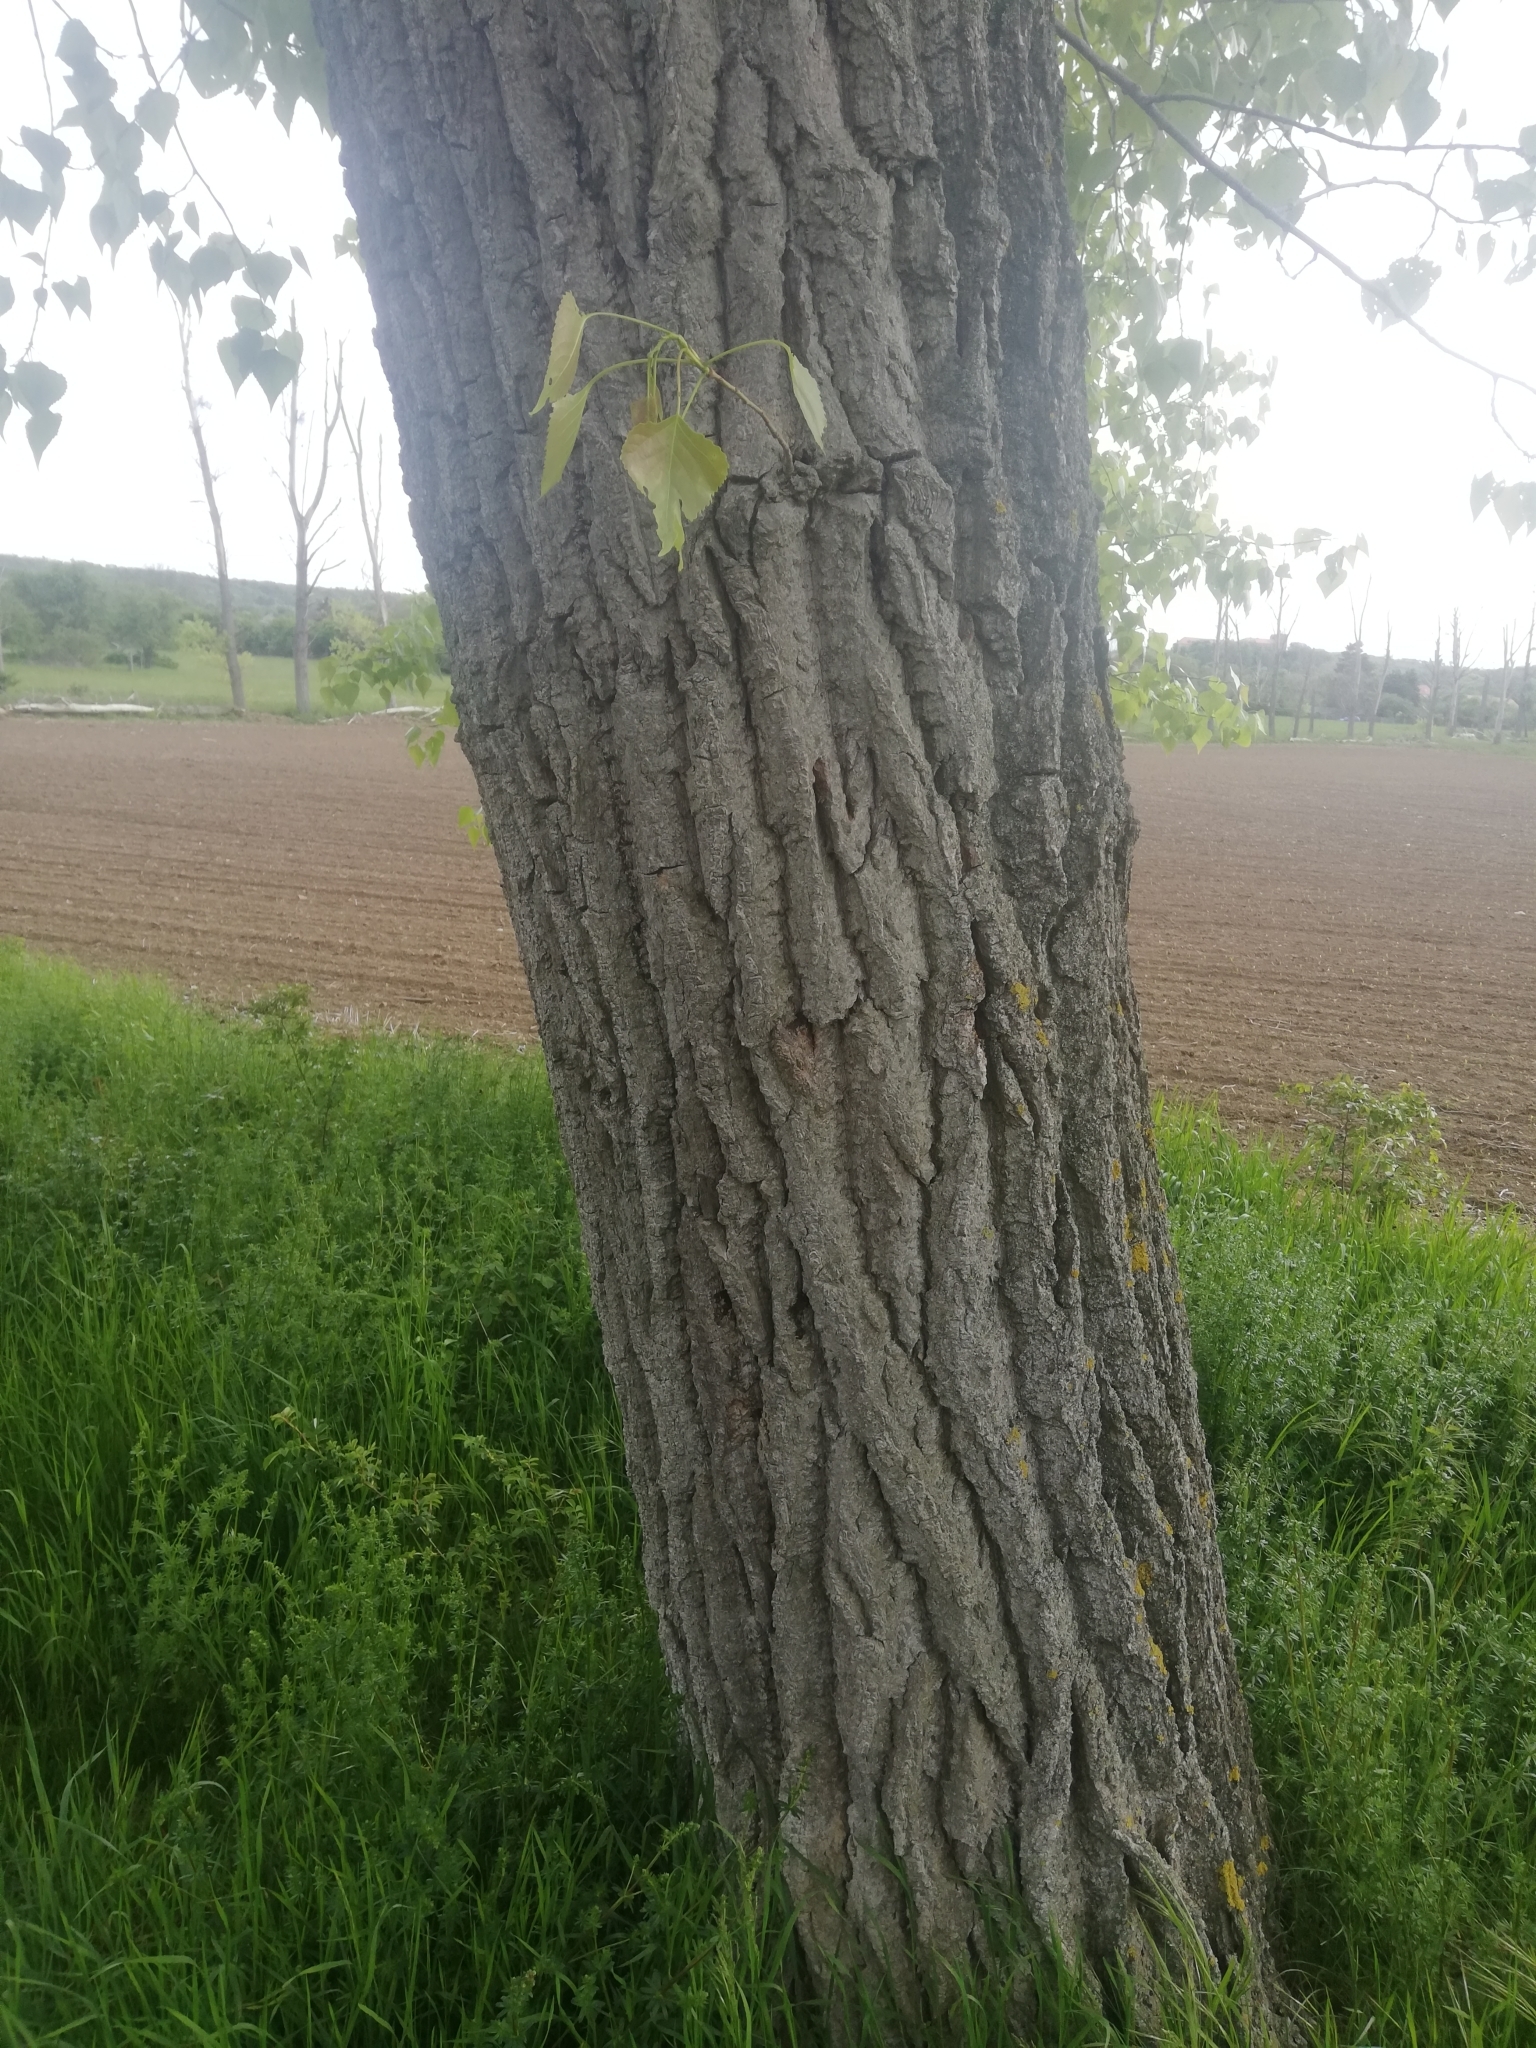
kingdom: Plantae
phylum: Tracheophyta
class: Magnoliopsida
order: Malpighiales
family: Salicaceae
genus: Populus
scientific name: Populus canadensis
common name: Carolina poplar
